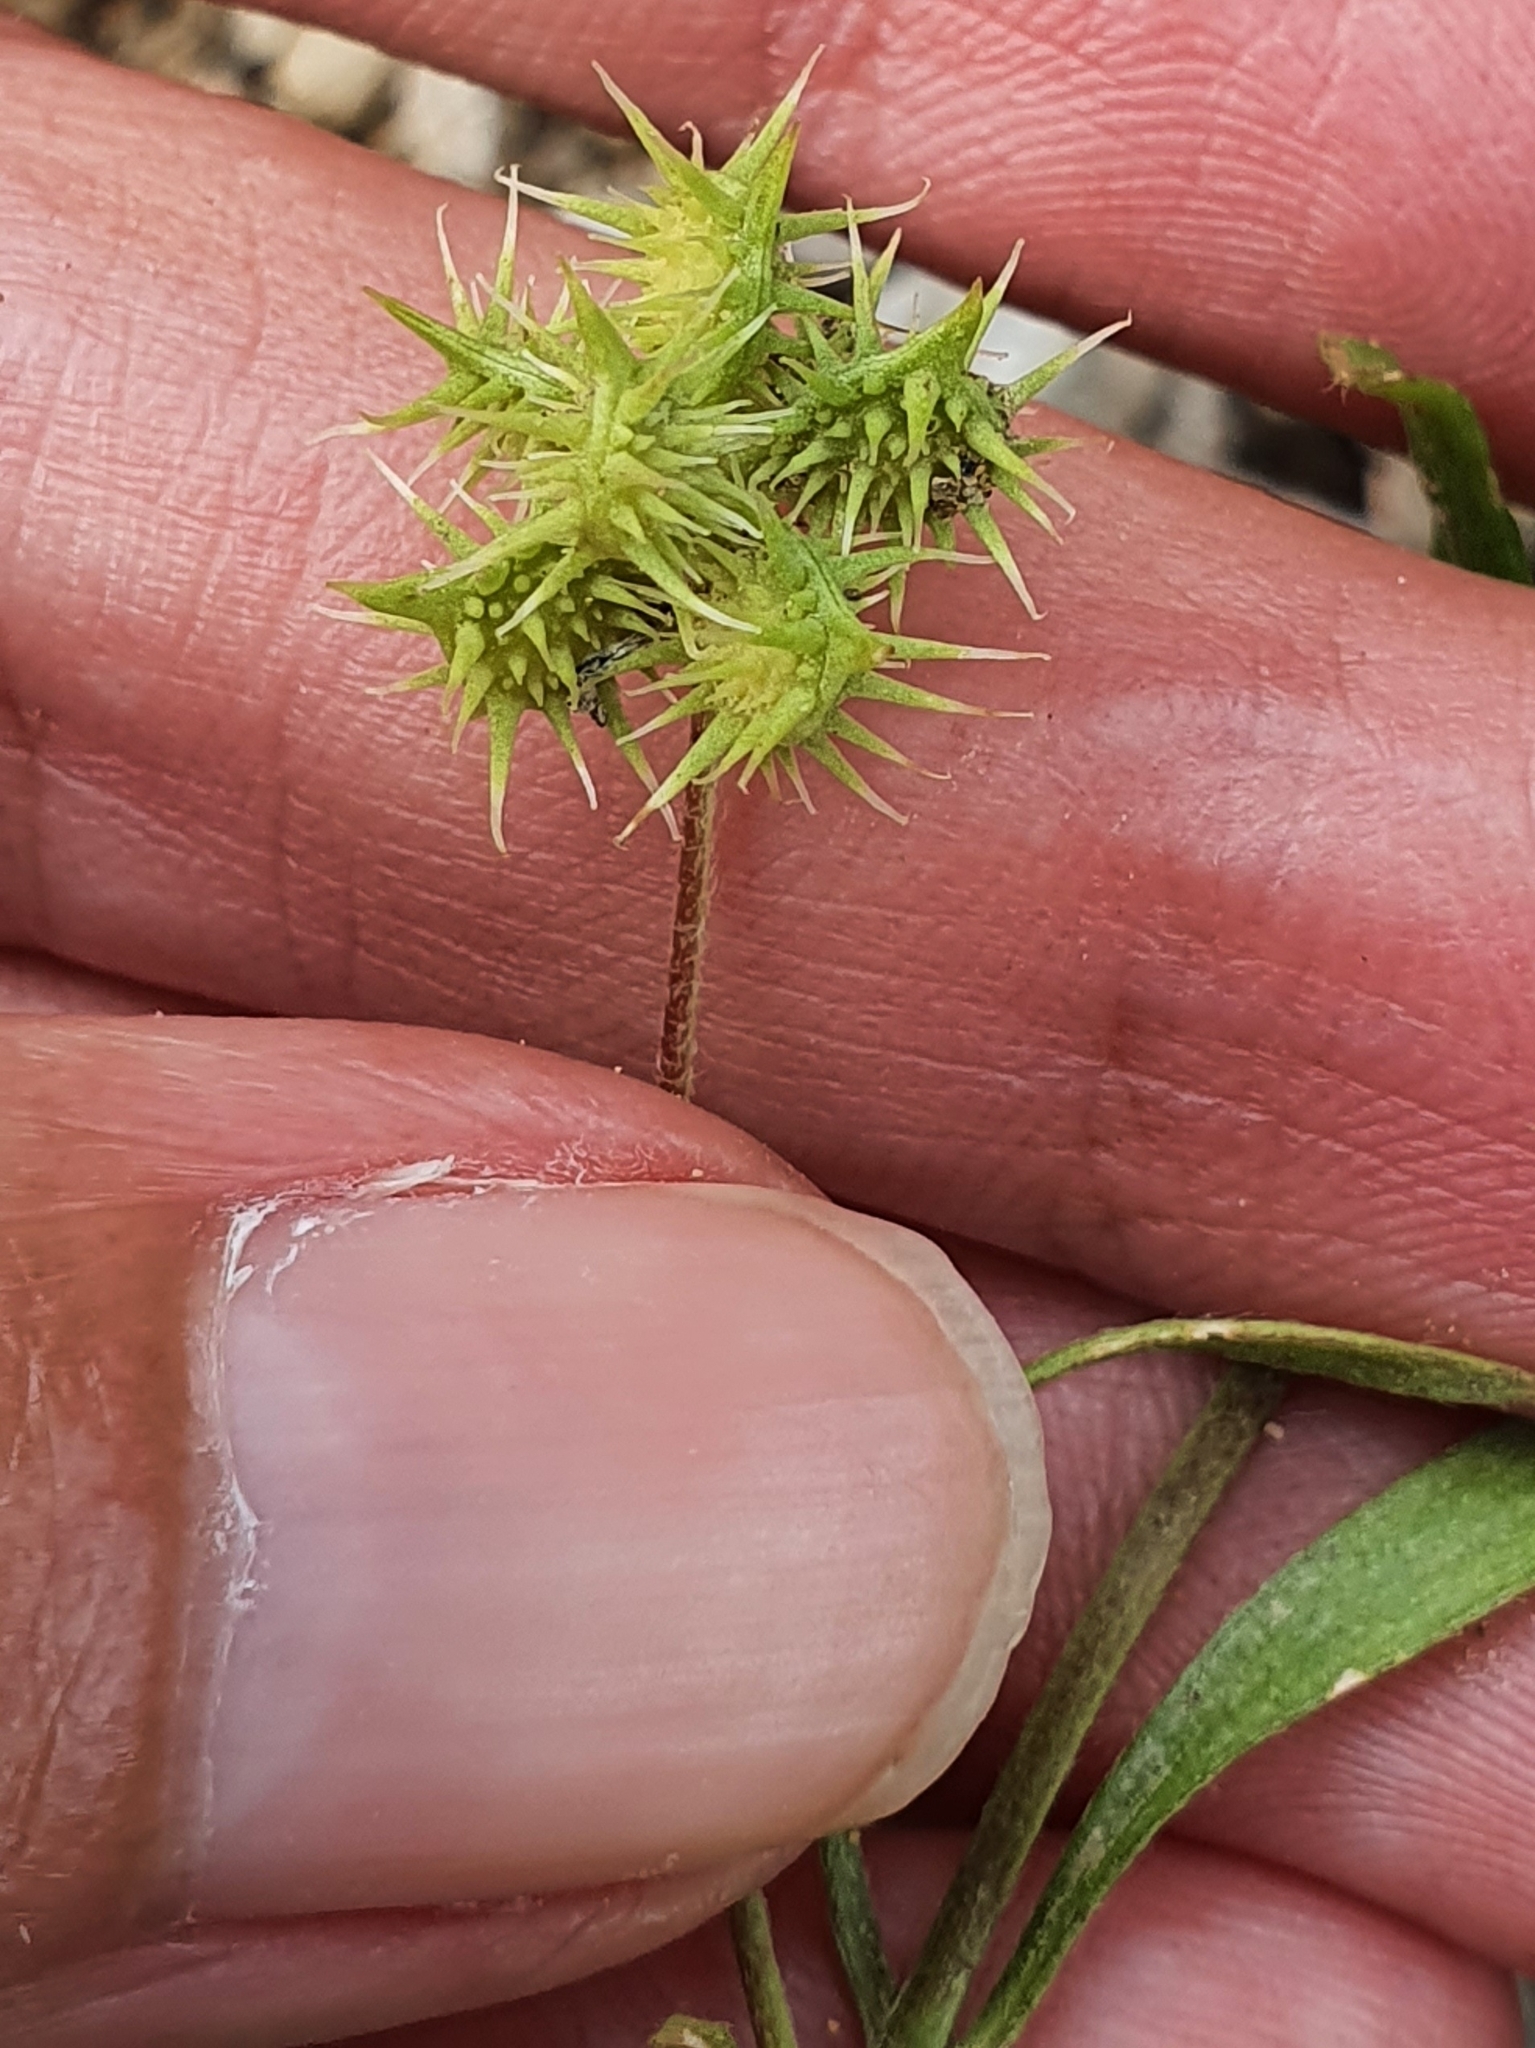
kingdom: Plantae
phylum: Tracheophyta
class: Magnoliopsida
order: Ranunculales
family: Ranunculaceae
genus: Ranunculus
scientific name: Ranunculus arvensis
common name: Corn buttercup
